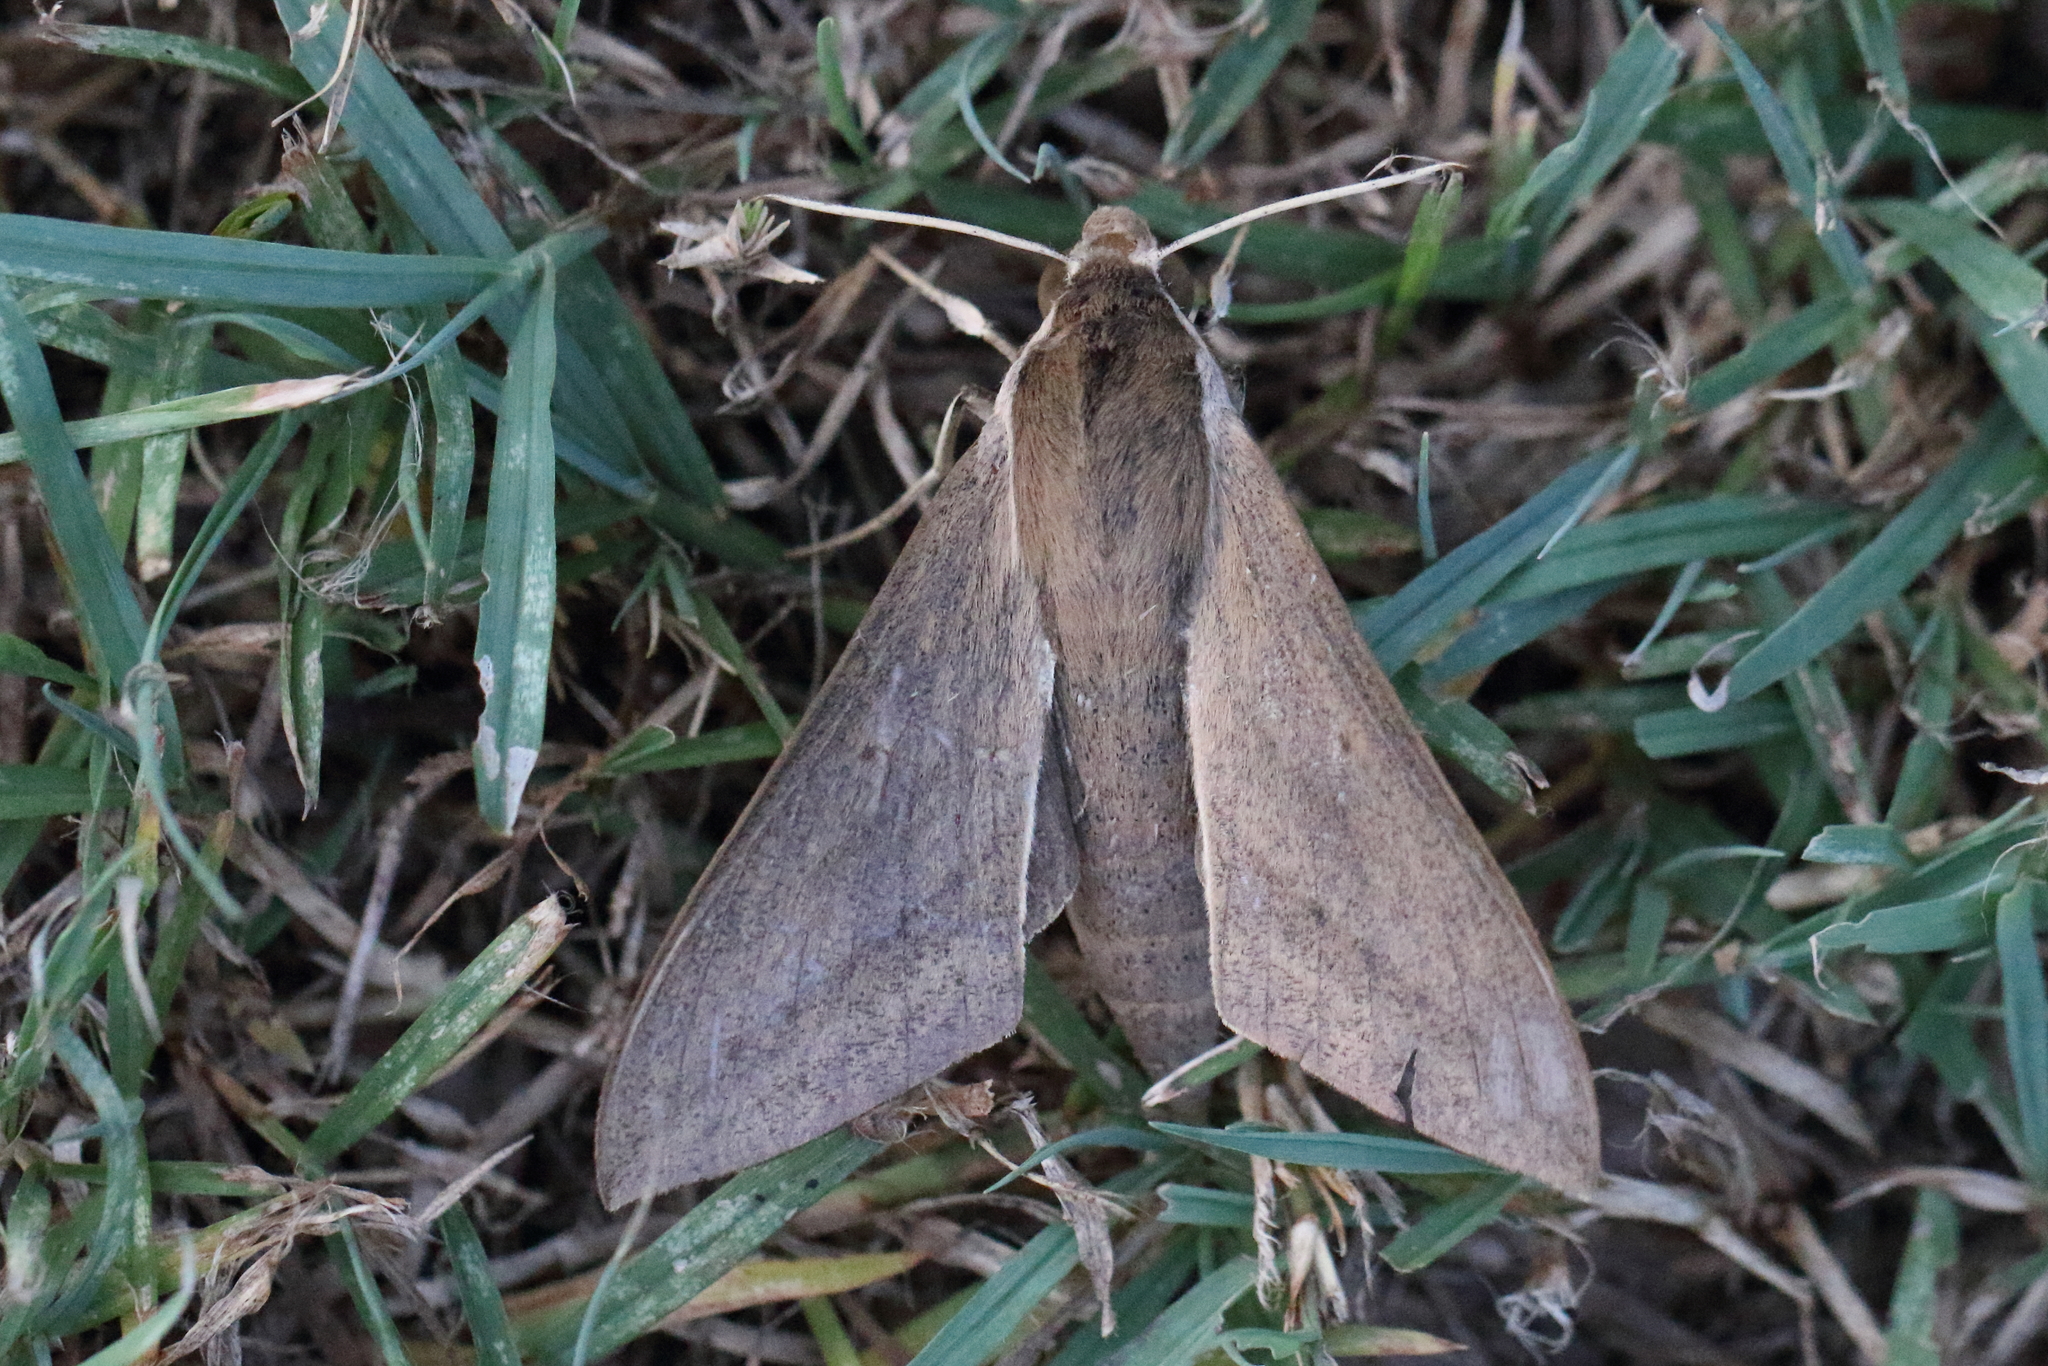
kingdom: Animalia
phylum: Arthropoda
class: Insecta
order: Lepidoptera
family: Sphingidae
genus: Theretra
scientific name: Theretra latreillii
